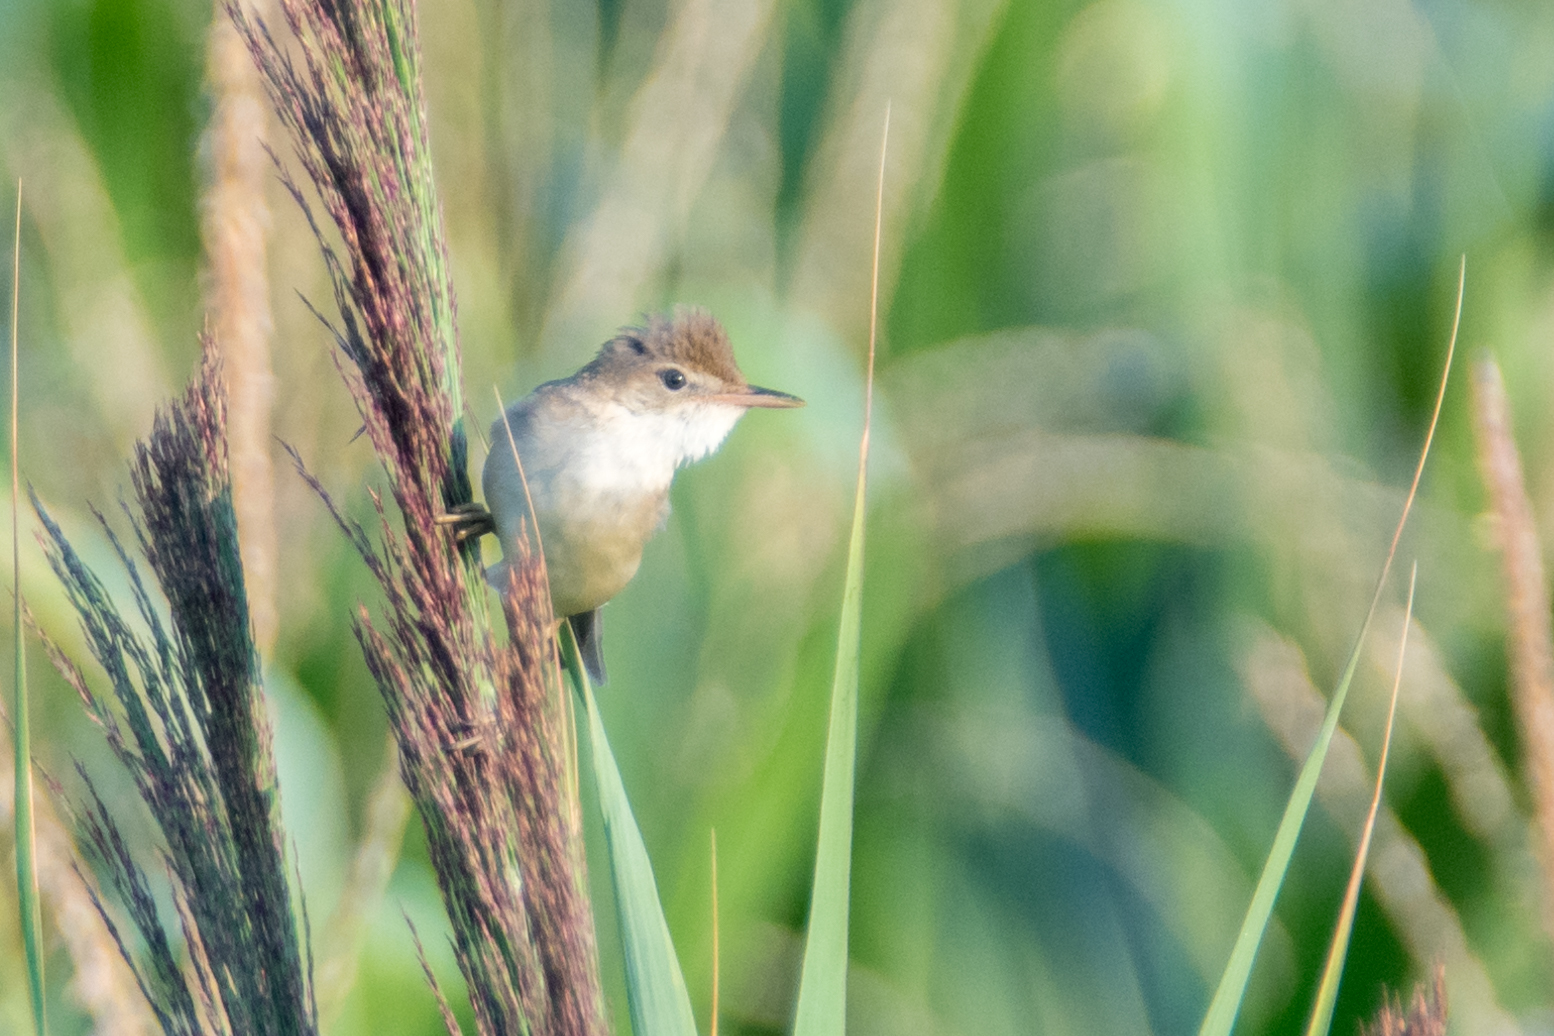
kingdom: Animalia
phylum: Chordata
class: Aves
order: Passeriformes
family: Acrocephalidae
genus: Acrocephalus
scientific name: Acrocephalus palustris
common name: Marsh warbler
